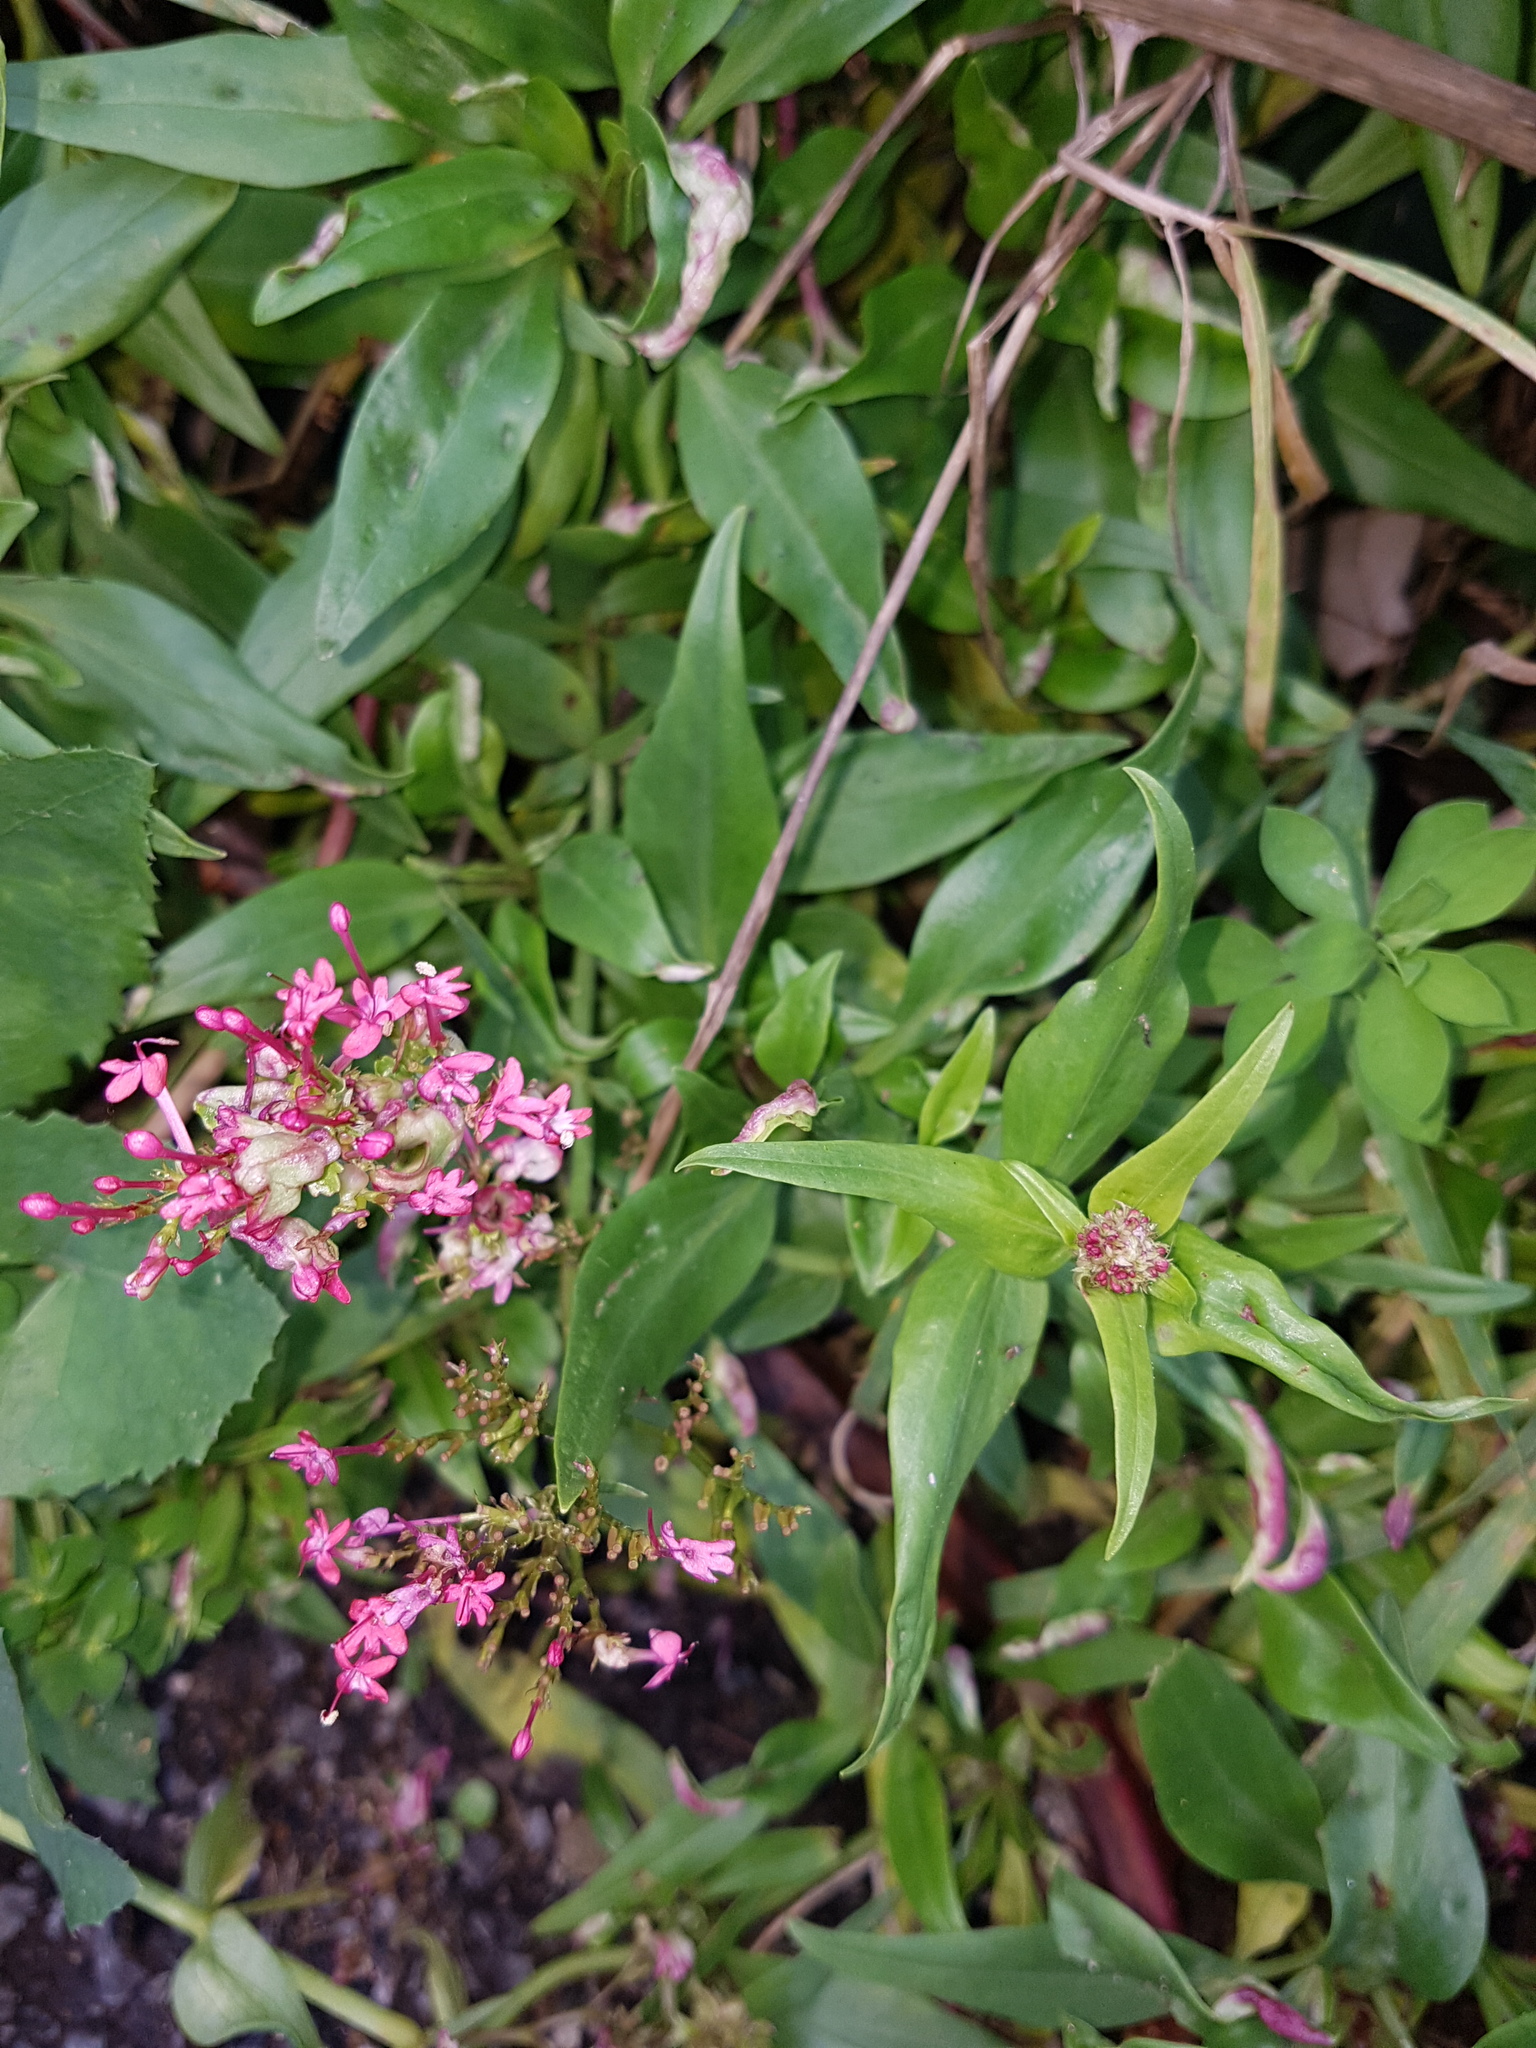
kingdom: Plantae
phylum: Tracheophyta
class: Magnoliopsida
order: Dipsacales
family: Caprifoliaceae
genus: Centranthus
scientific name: Centranthus ruber
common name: Red valerian
